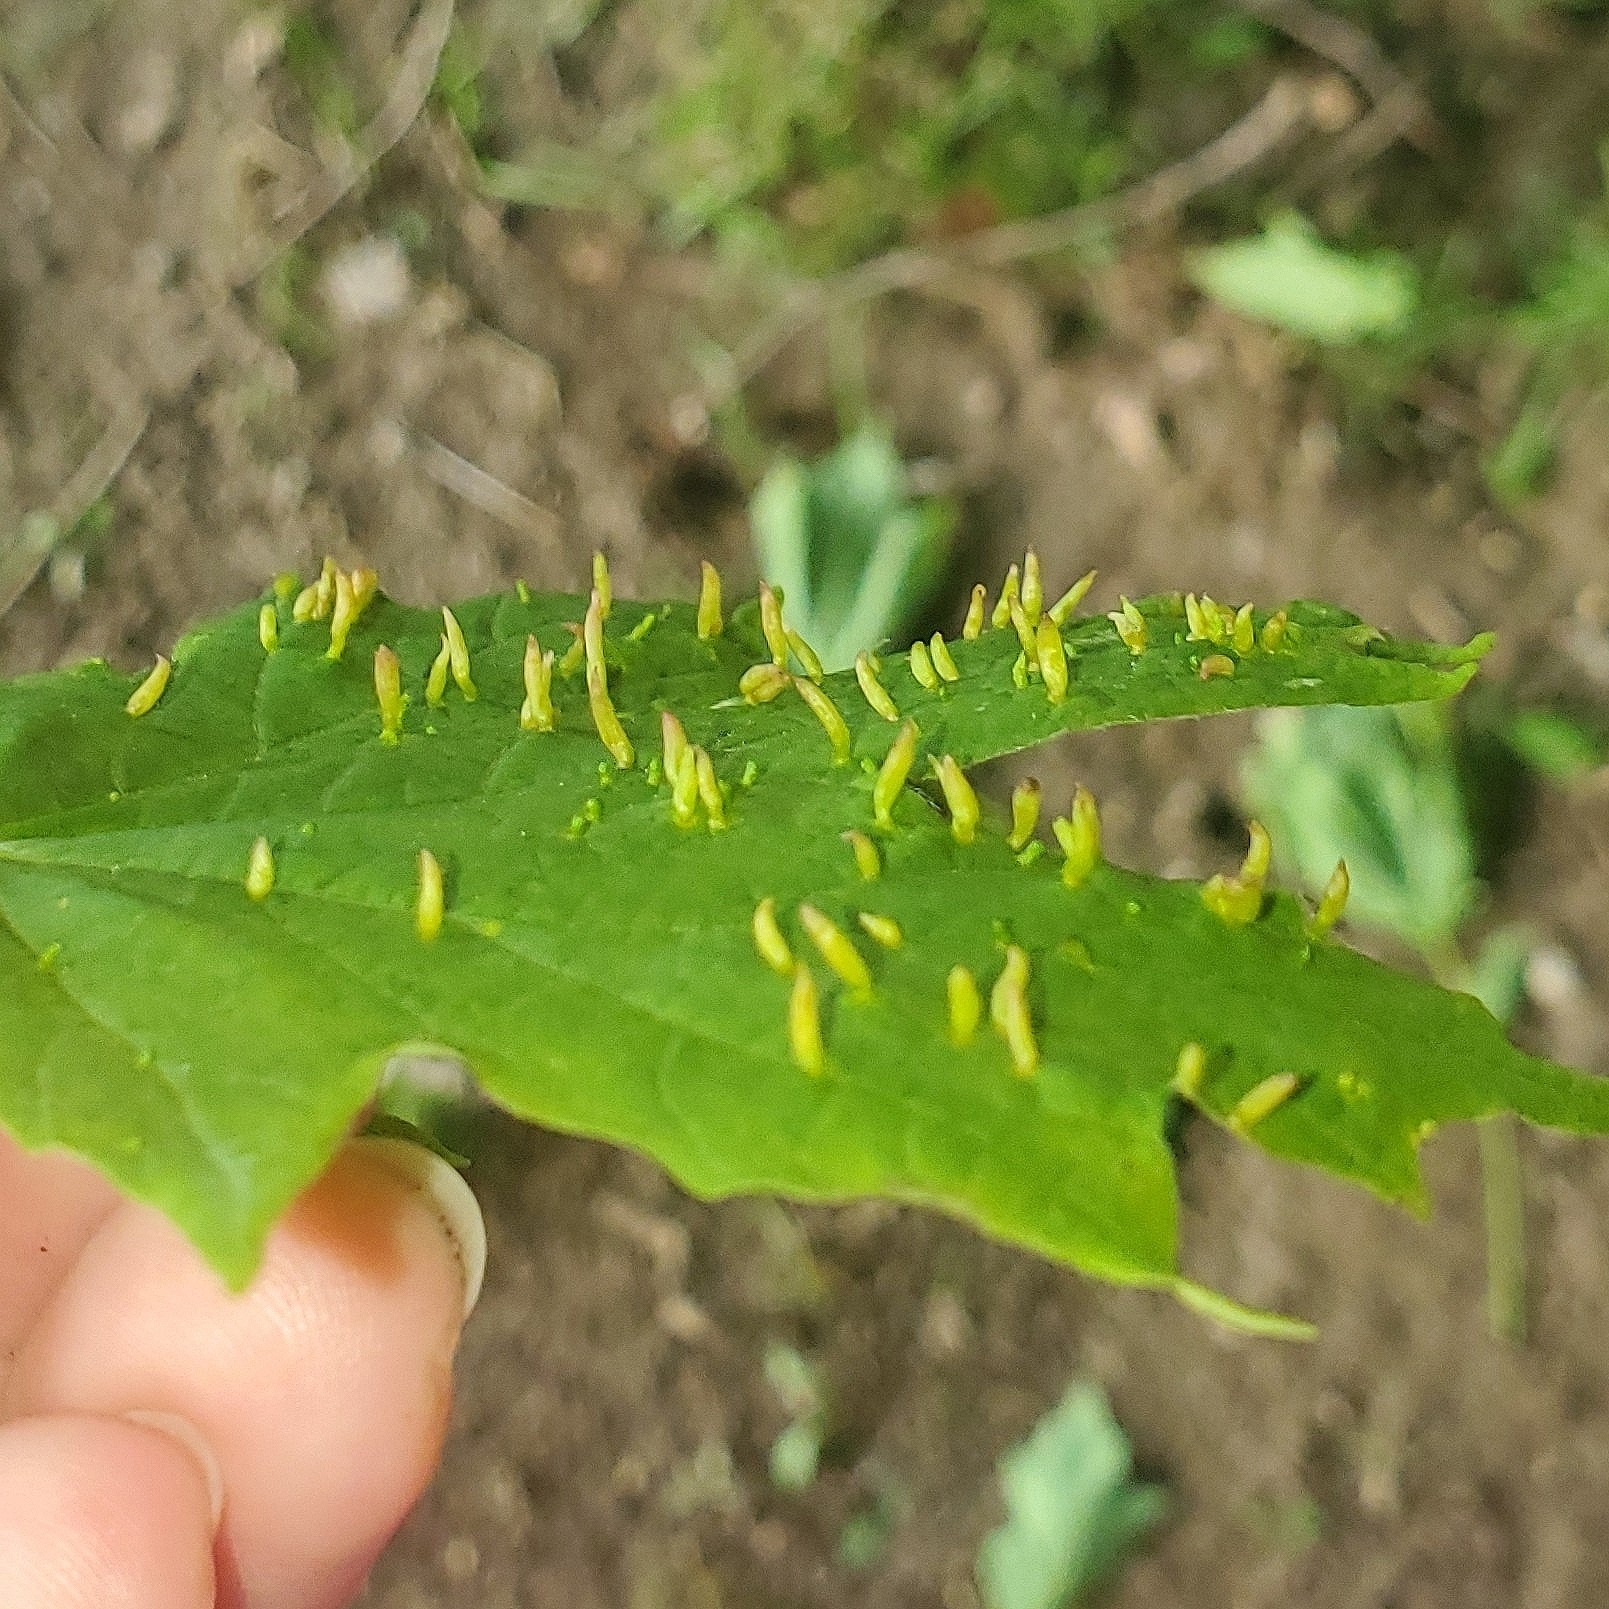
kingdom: Animalia
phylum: Arthropoda
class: Arachnida
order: Trombidiformes
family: Eriophyidae
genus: Vasates
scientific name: Vasates aceriscrumena
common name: Maple spindle gall mite
